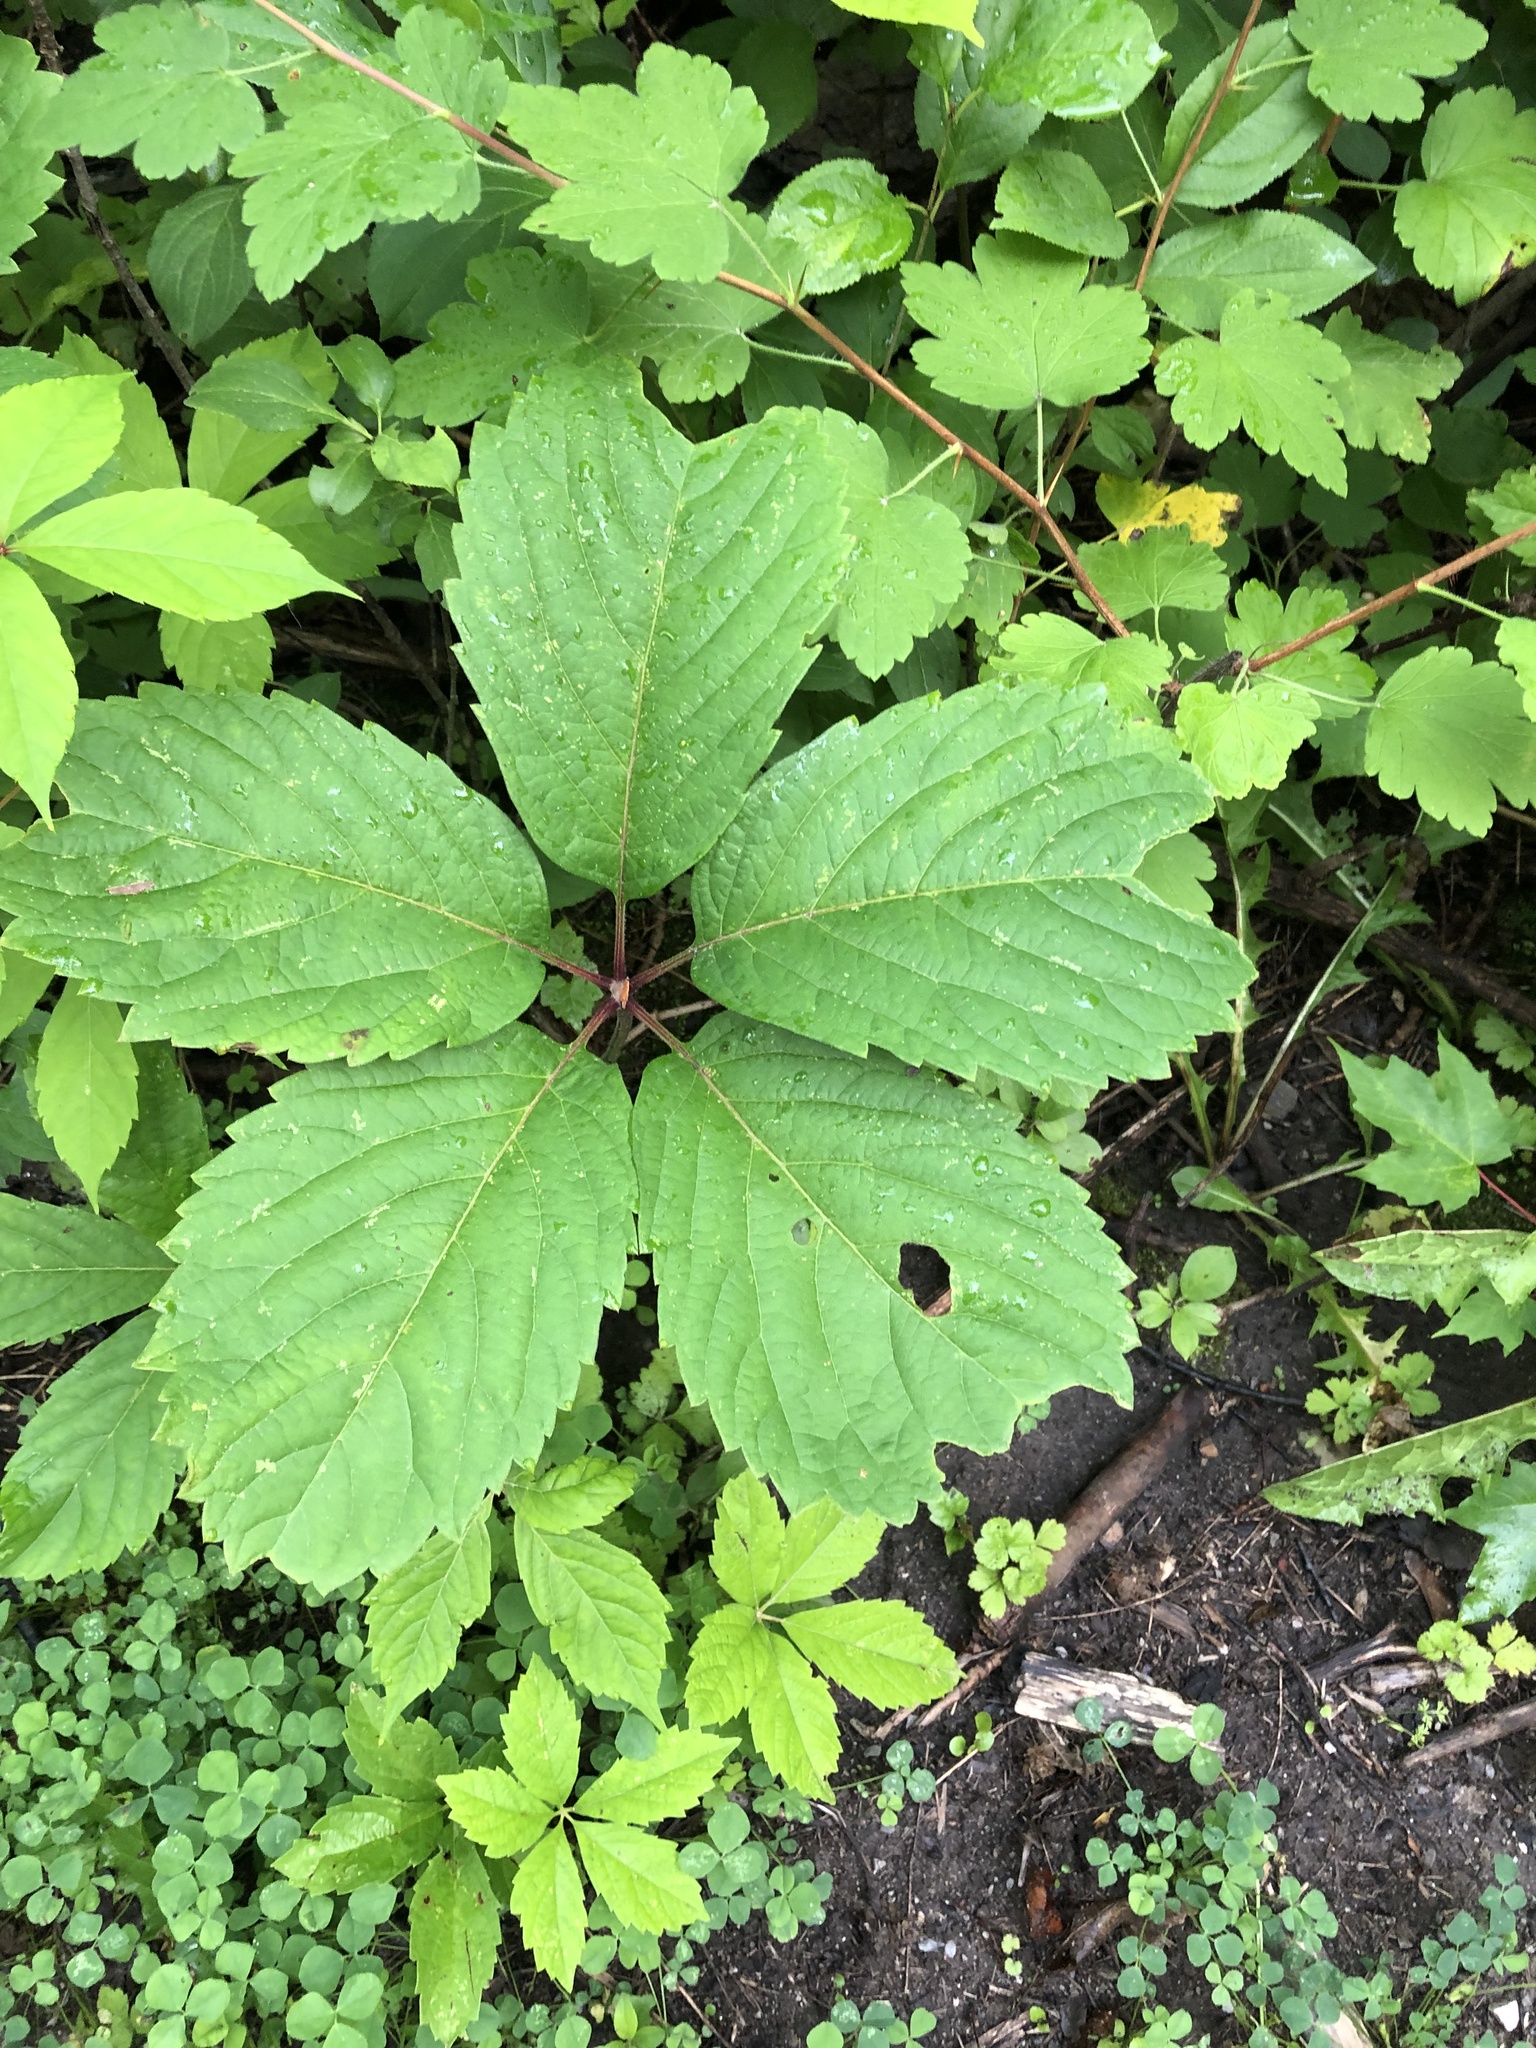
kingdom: Plantae
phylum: Tracheophyta
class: Magnoliopsida
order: Vitales
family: Vitaceae
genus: Parthenocissus
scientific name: Parthenocissus inserta
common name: False virginia-creeper
